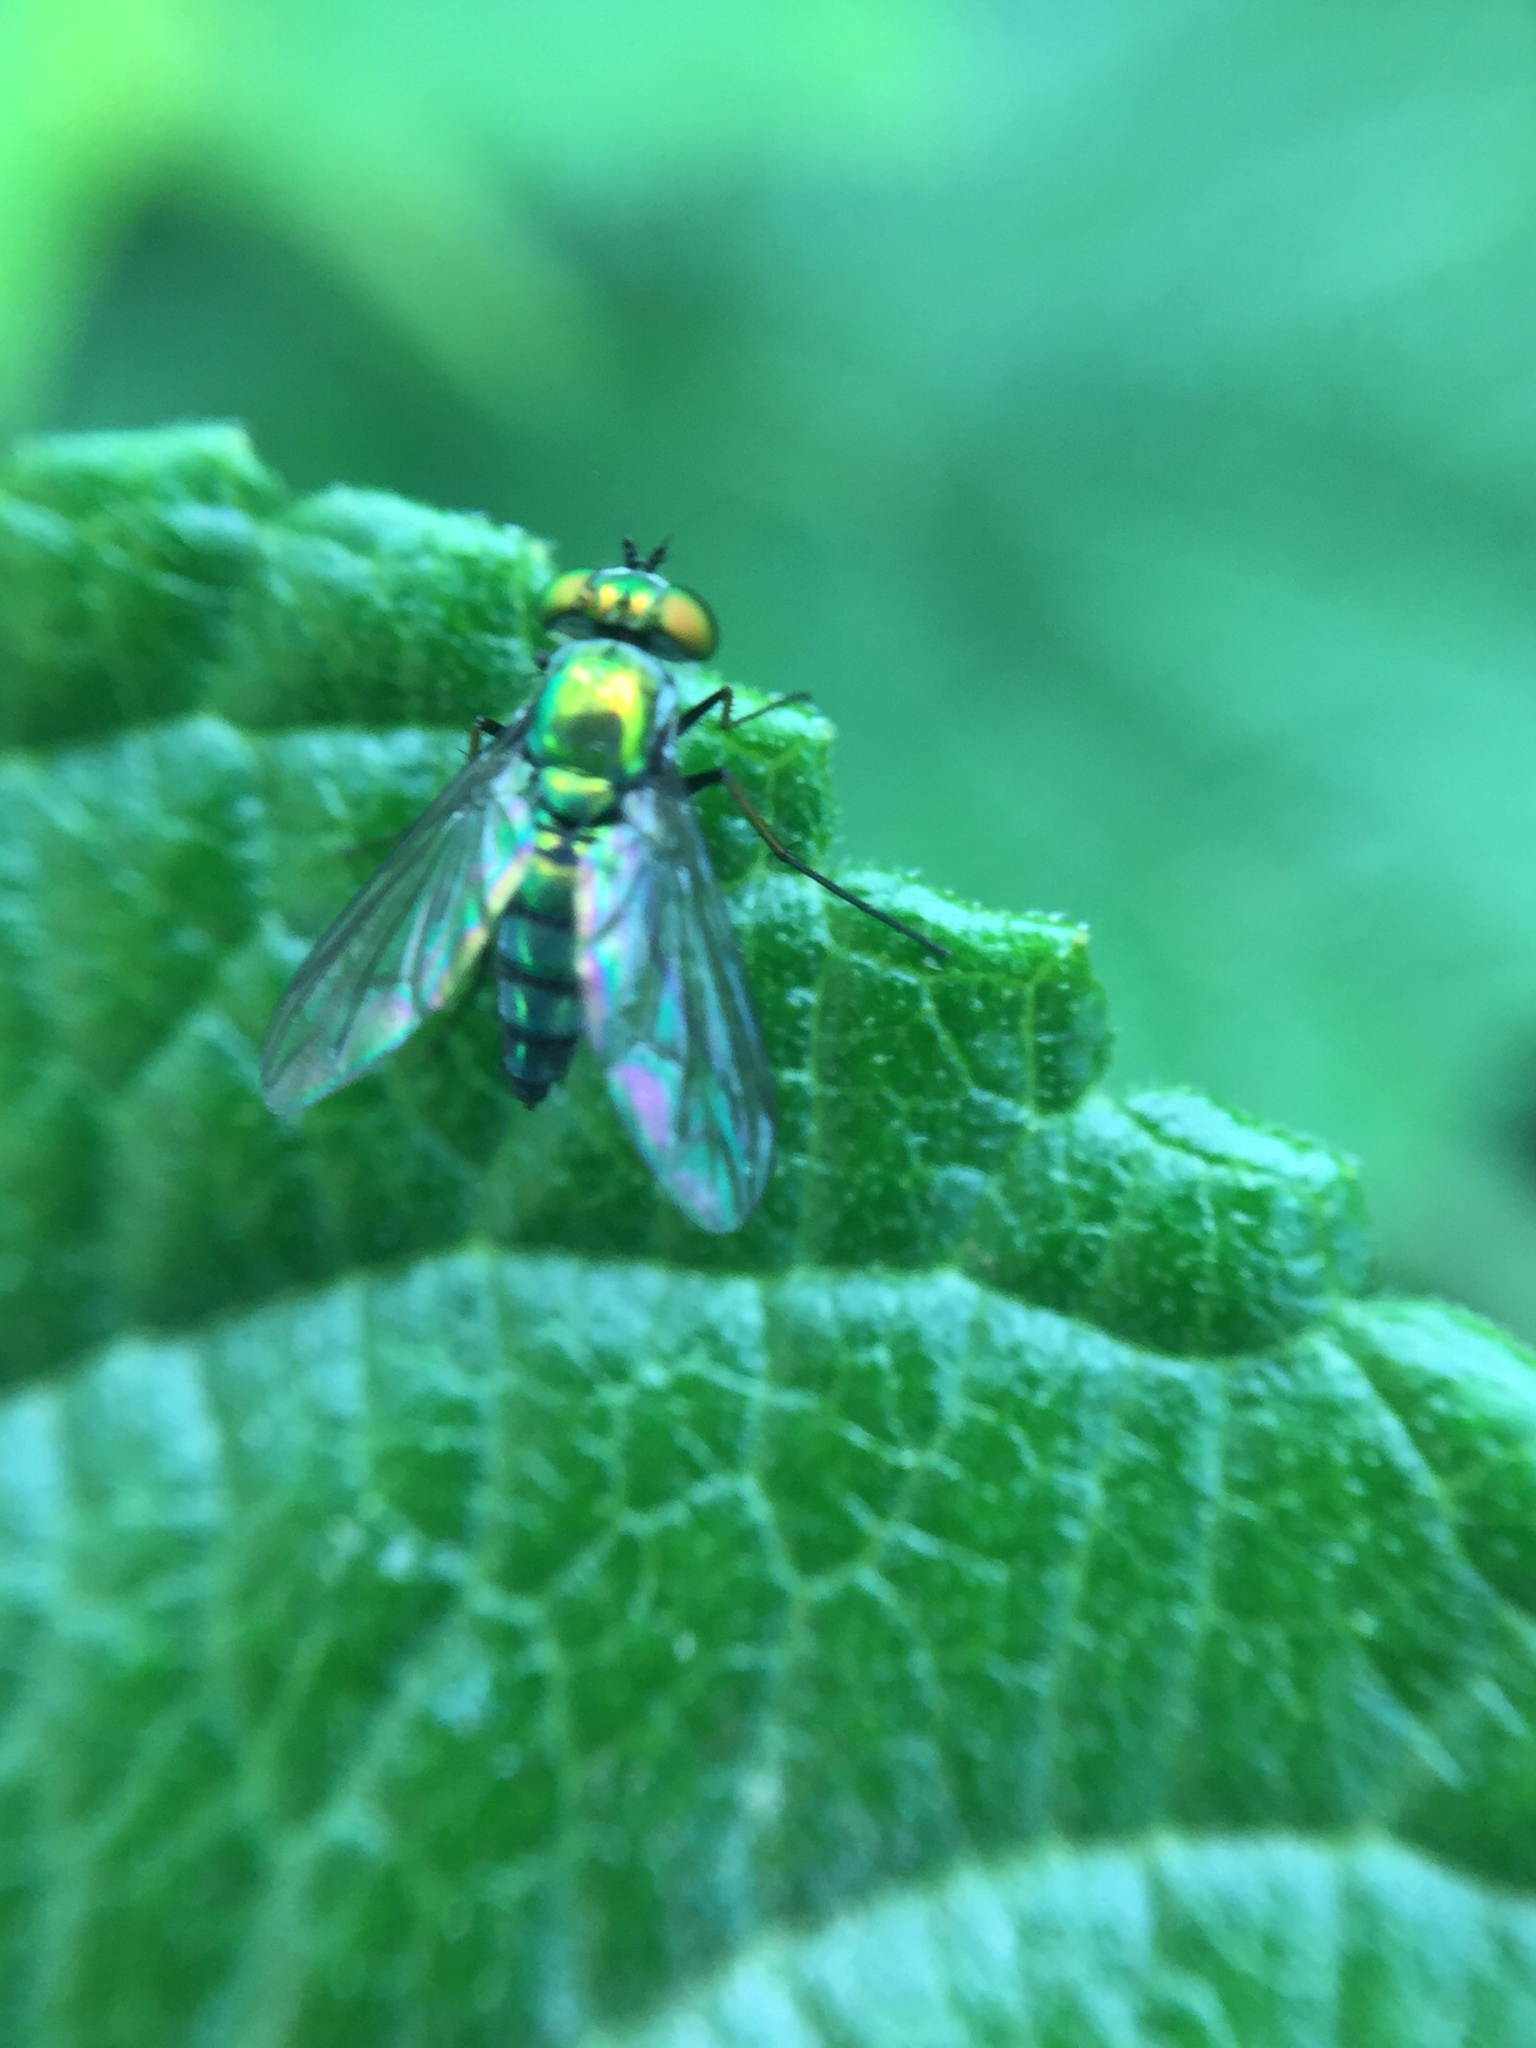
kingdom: Animalia
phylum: Arthropoda
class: Insecta
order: Diptera
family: Dolichopodidae
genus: Condylostylus
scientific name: Condylostylus longicornis
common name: Long-legged fly
